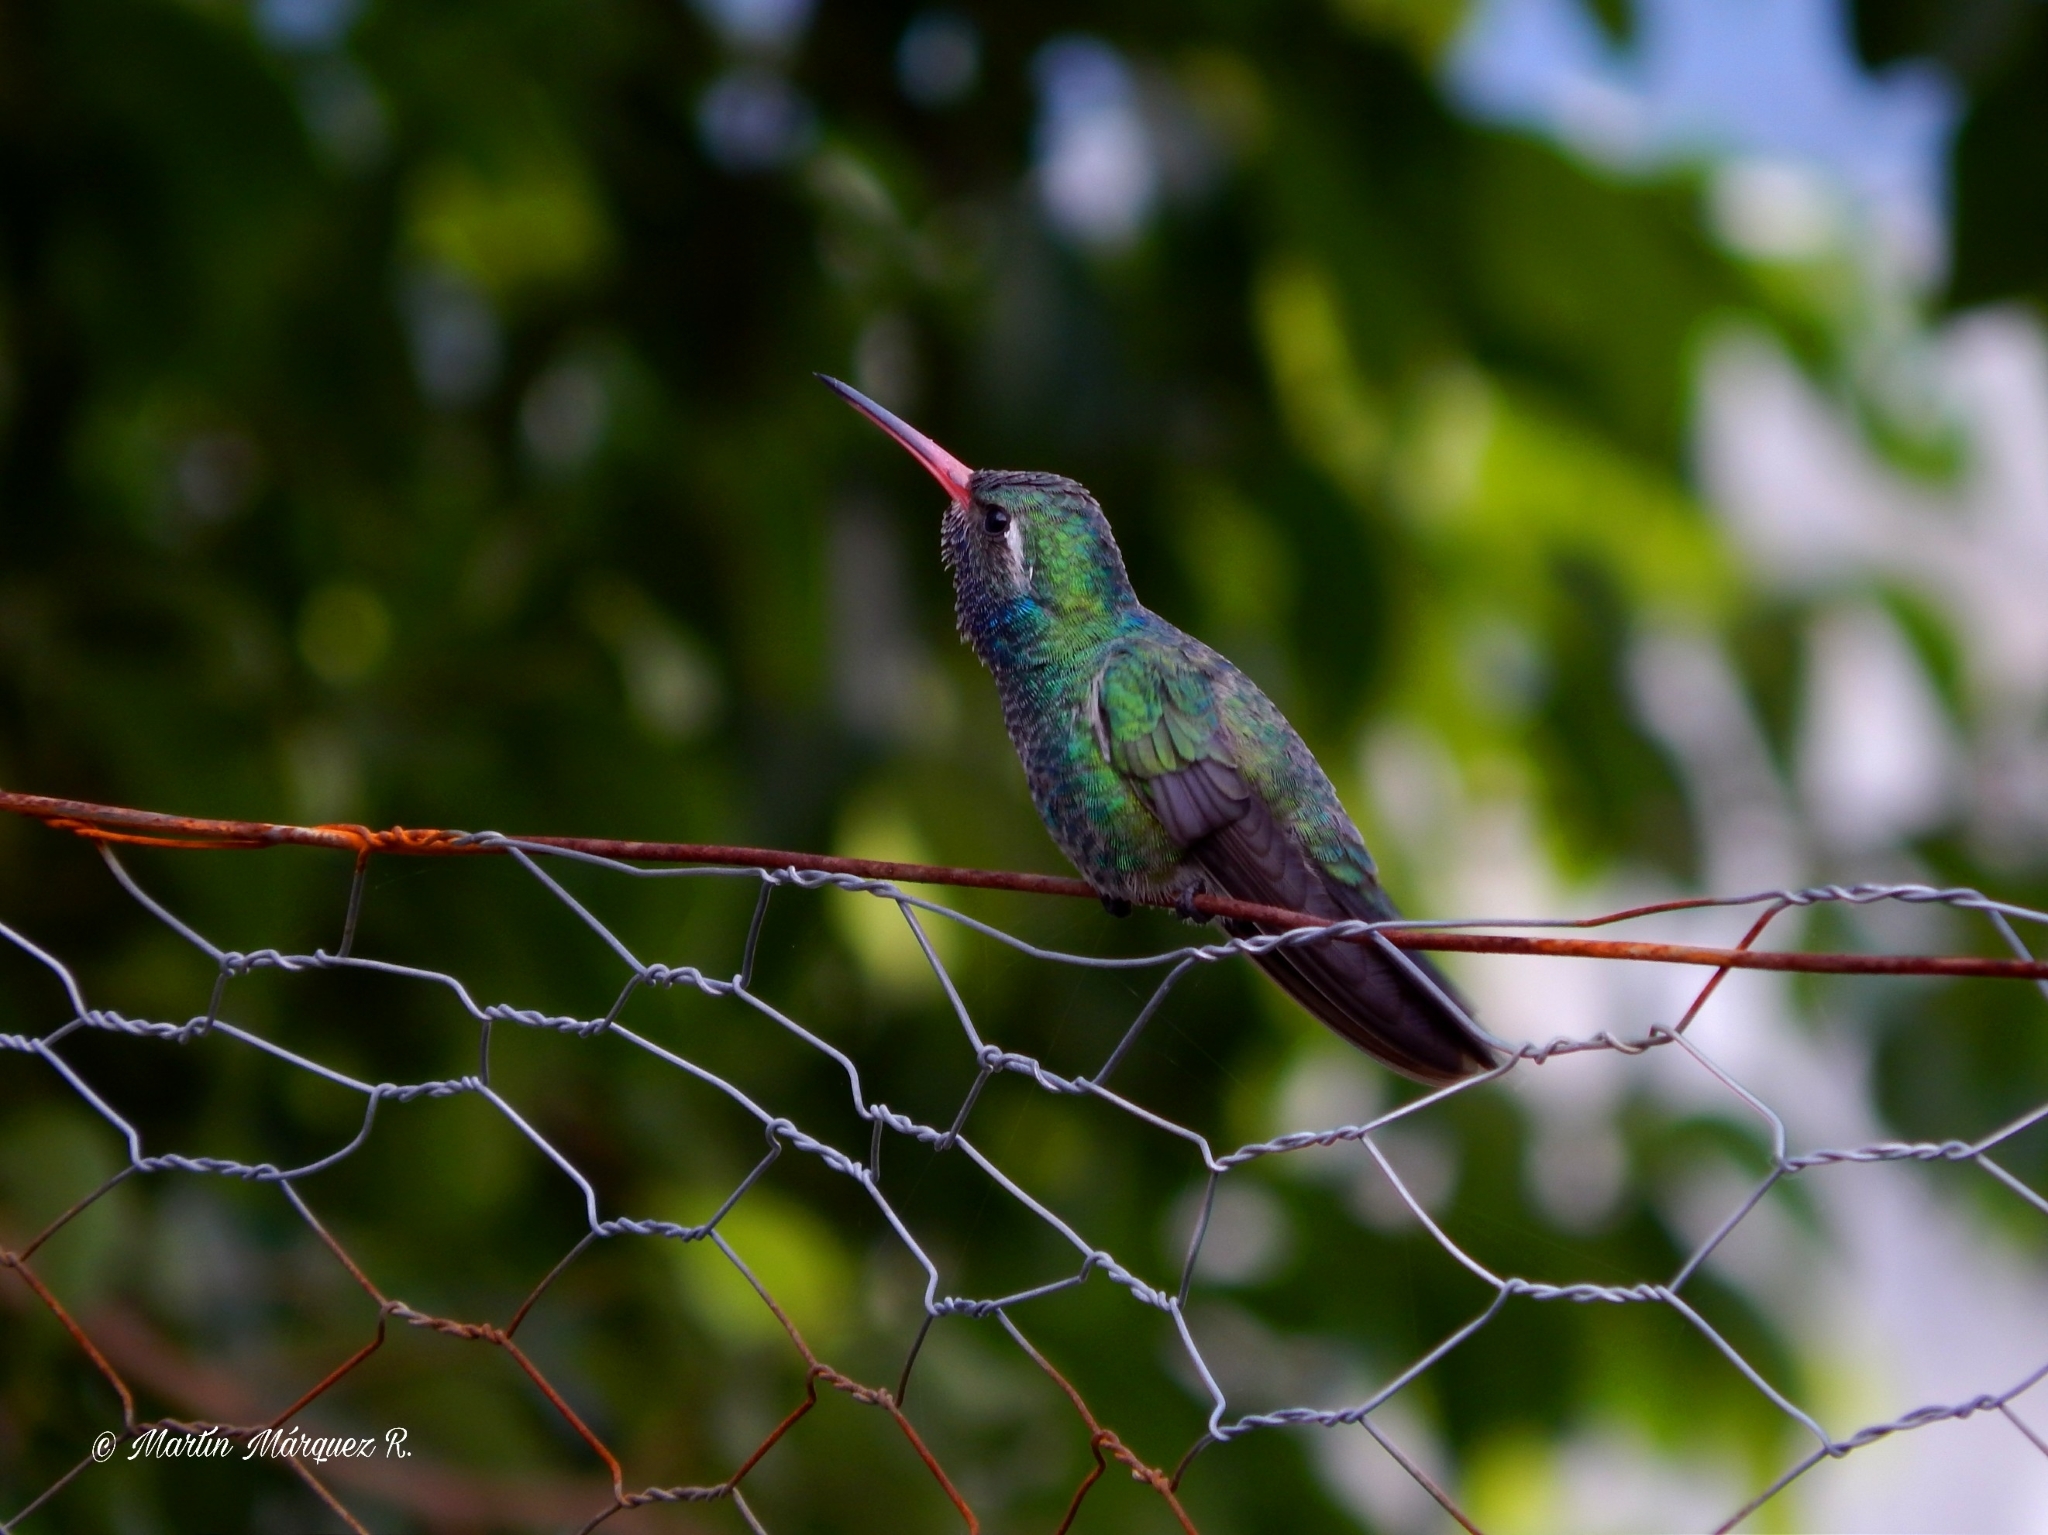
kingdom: Animalia
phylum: Chordata
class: Aves
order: Apodiformes
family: Trochilidae
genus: Cynanthus
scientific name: Cynanthus latirostris
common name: Broad-billed hummingbird
